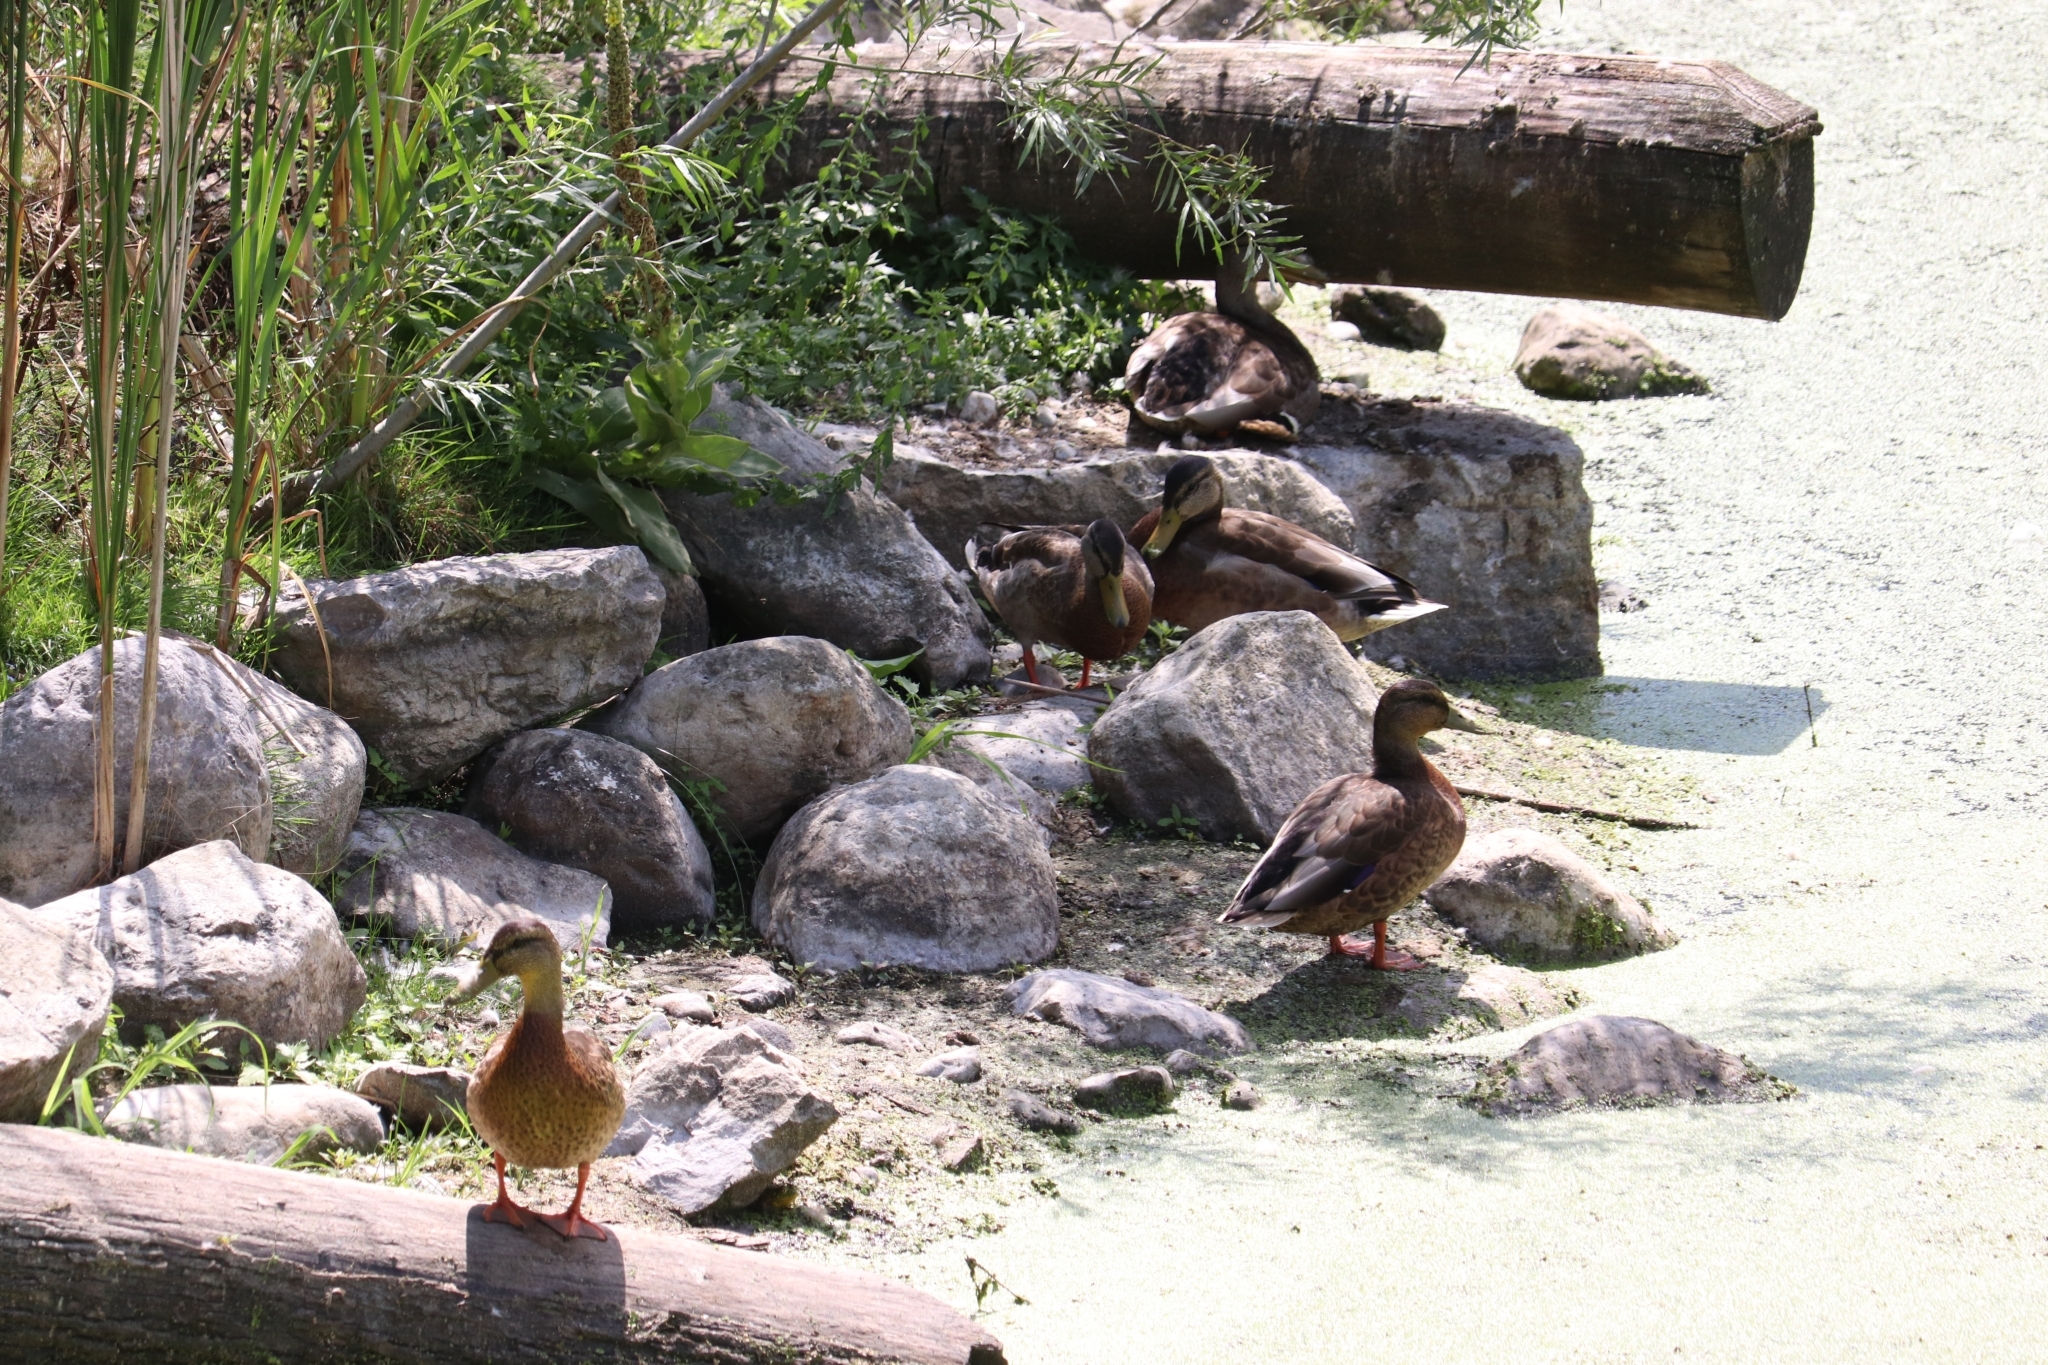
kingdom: Animalia
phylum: Chordata
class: Aves
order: Anseriformes
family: Anatidae
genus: Anas
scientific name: Anas platyrhynchos
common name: Mallard
